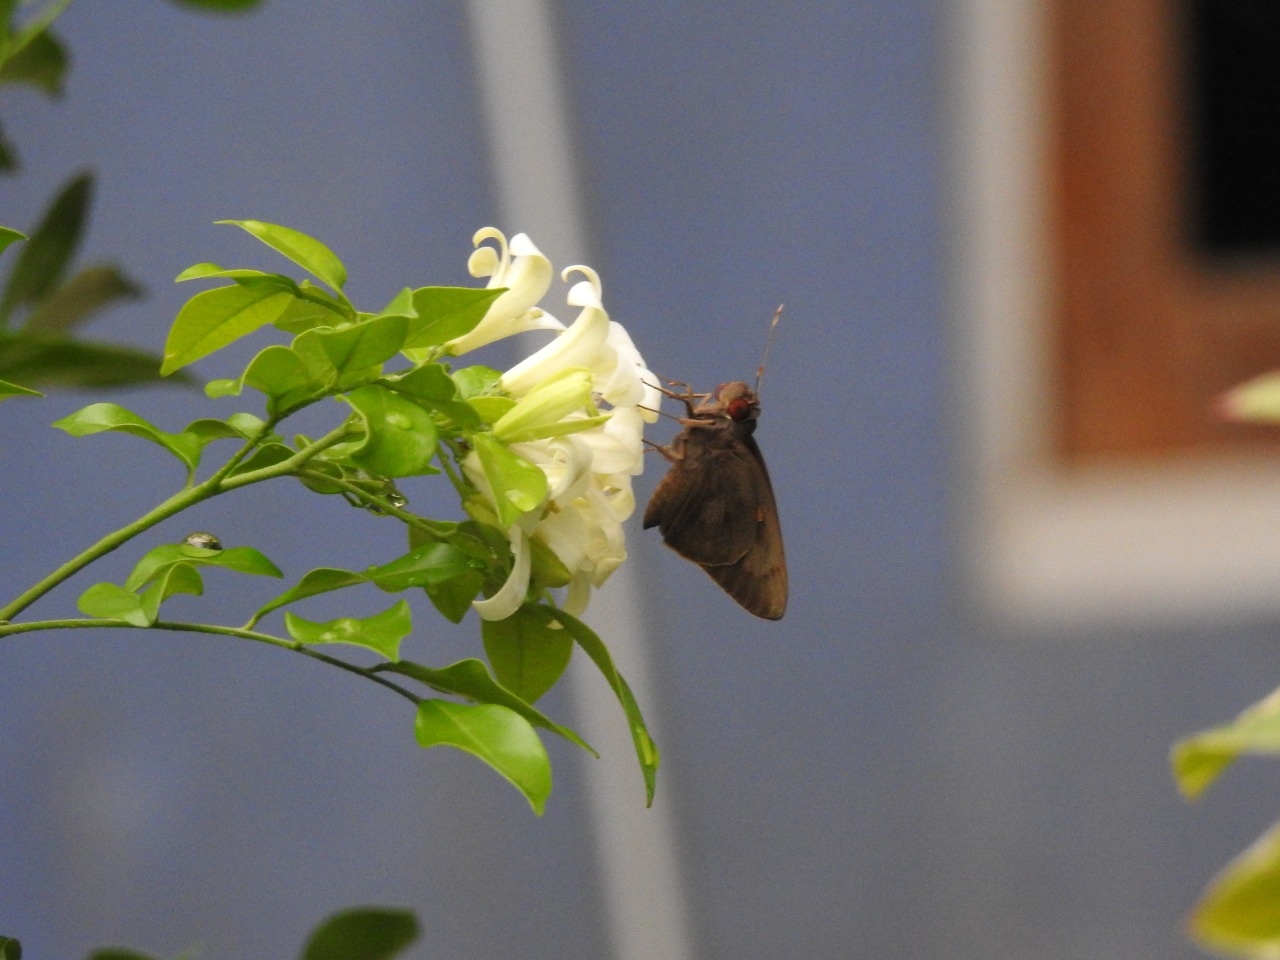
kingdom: Animalia
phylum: Arthropoda
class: Insecta
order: Lepidoptera
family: Hesperiidae
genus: Erionota
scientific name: Erionota thrax
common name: Banana skipper
